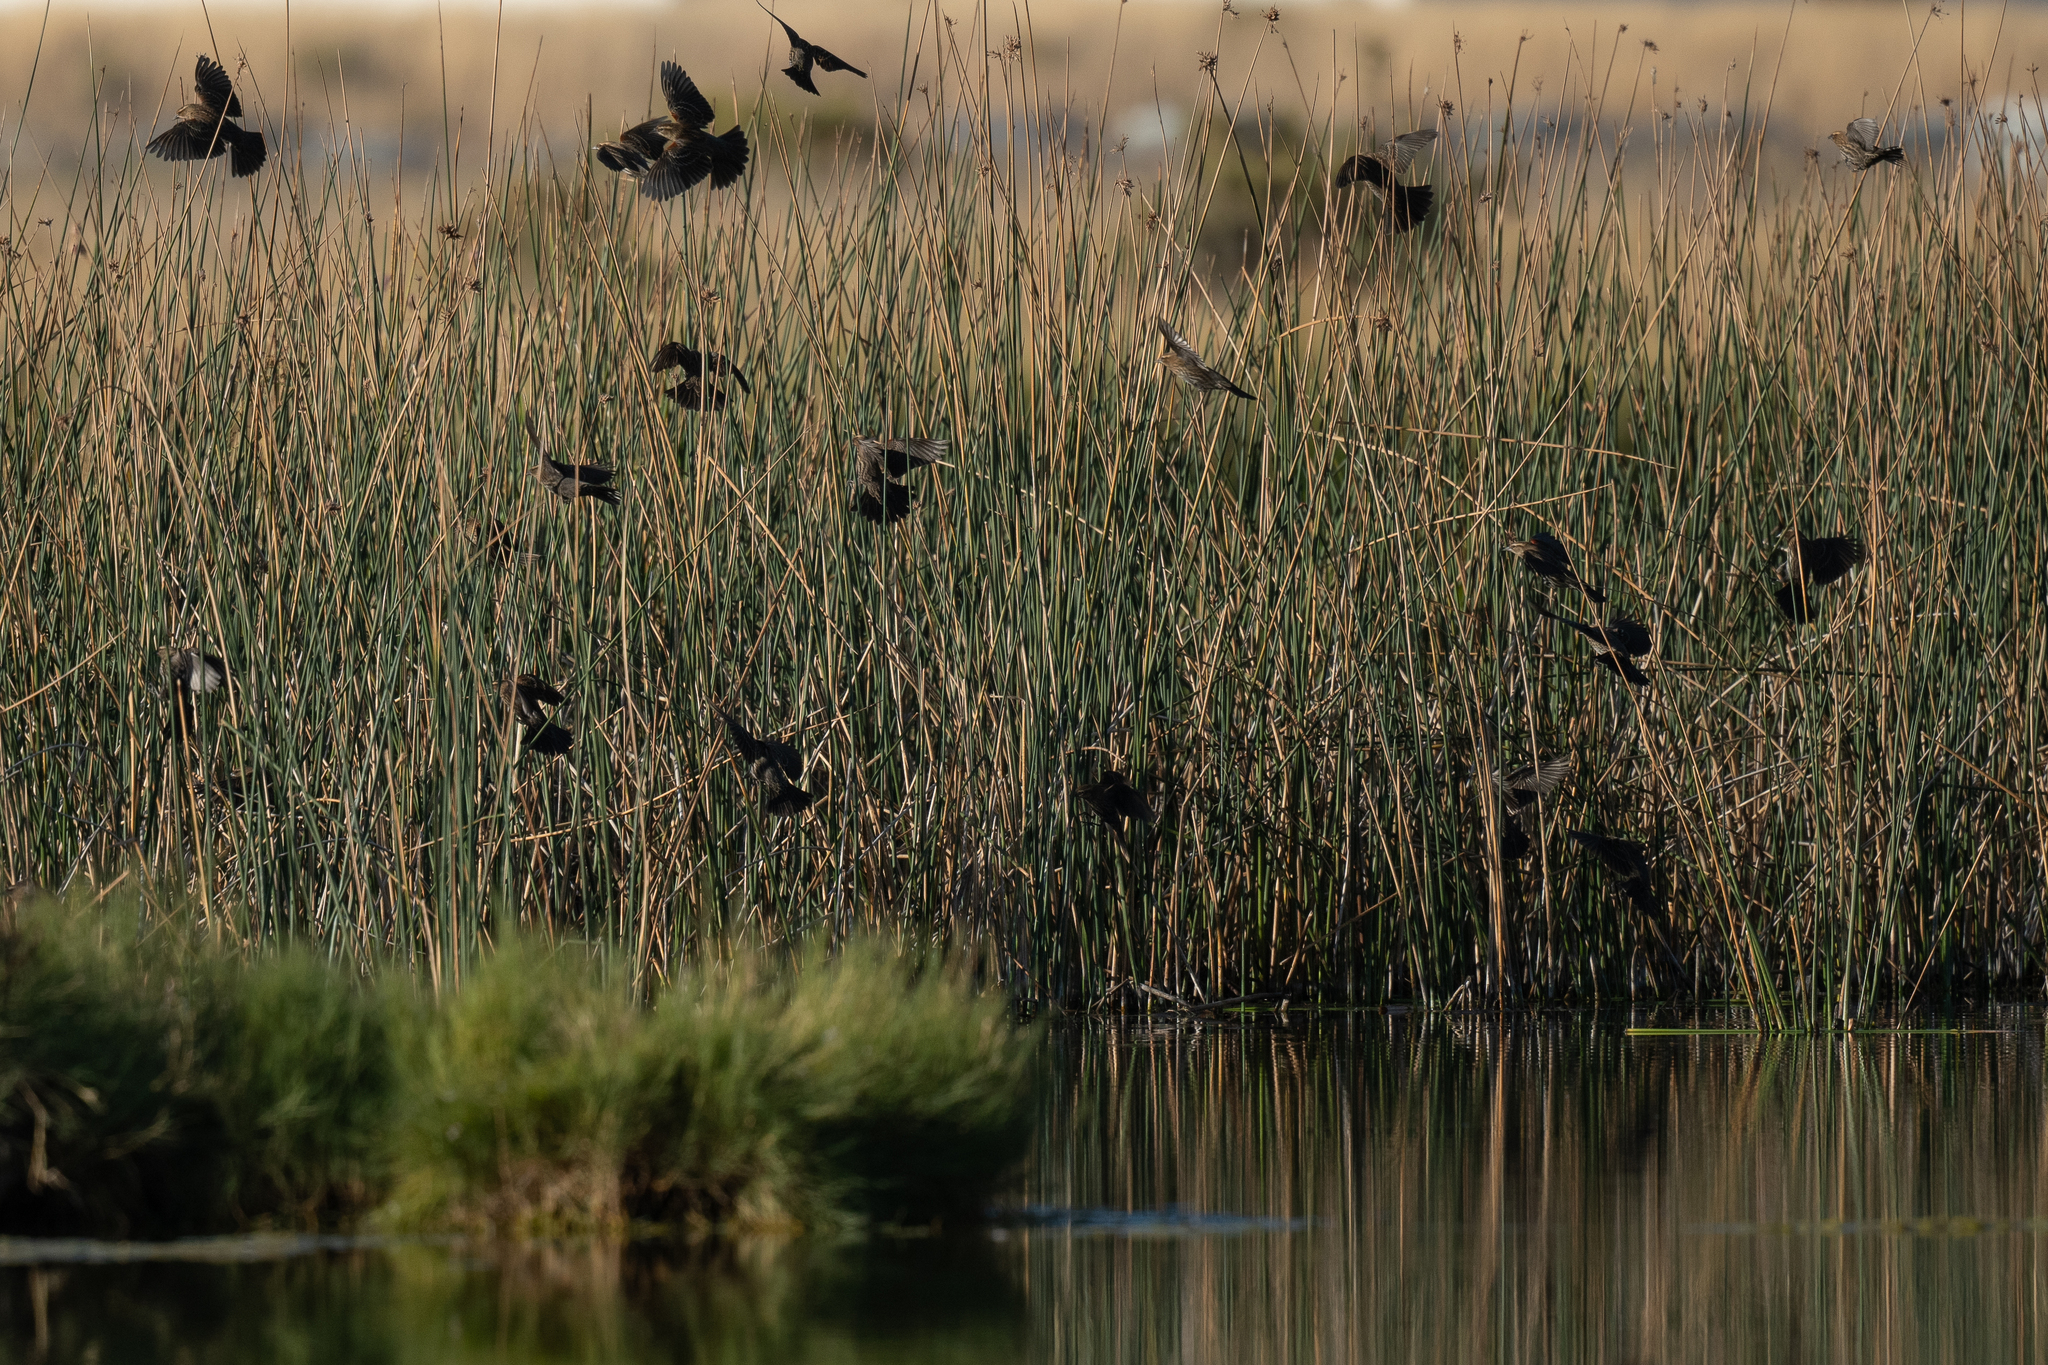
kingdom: Animalia
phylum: Chordata
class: Aves
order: Passeriformes
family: Icteridae
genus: Agelaius
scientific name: Agelaius phoeniceus
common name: Red-winged blackbird
